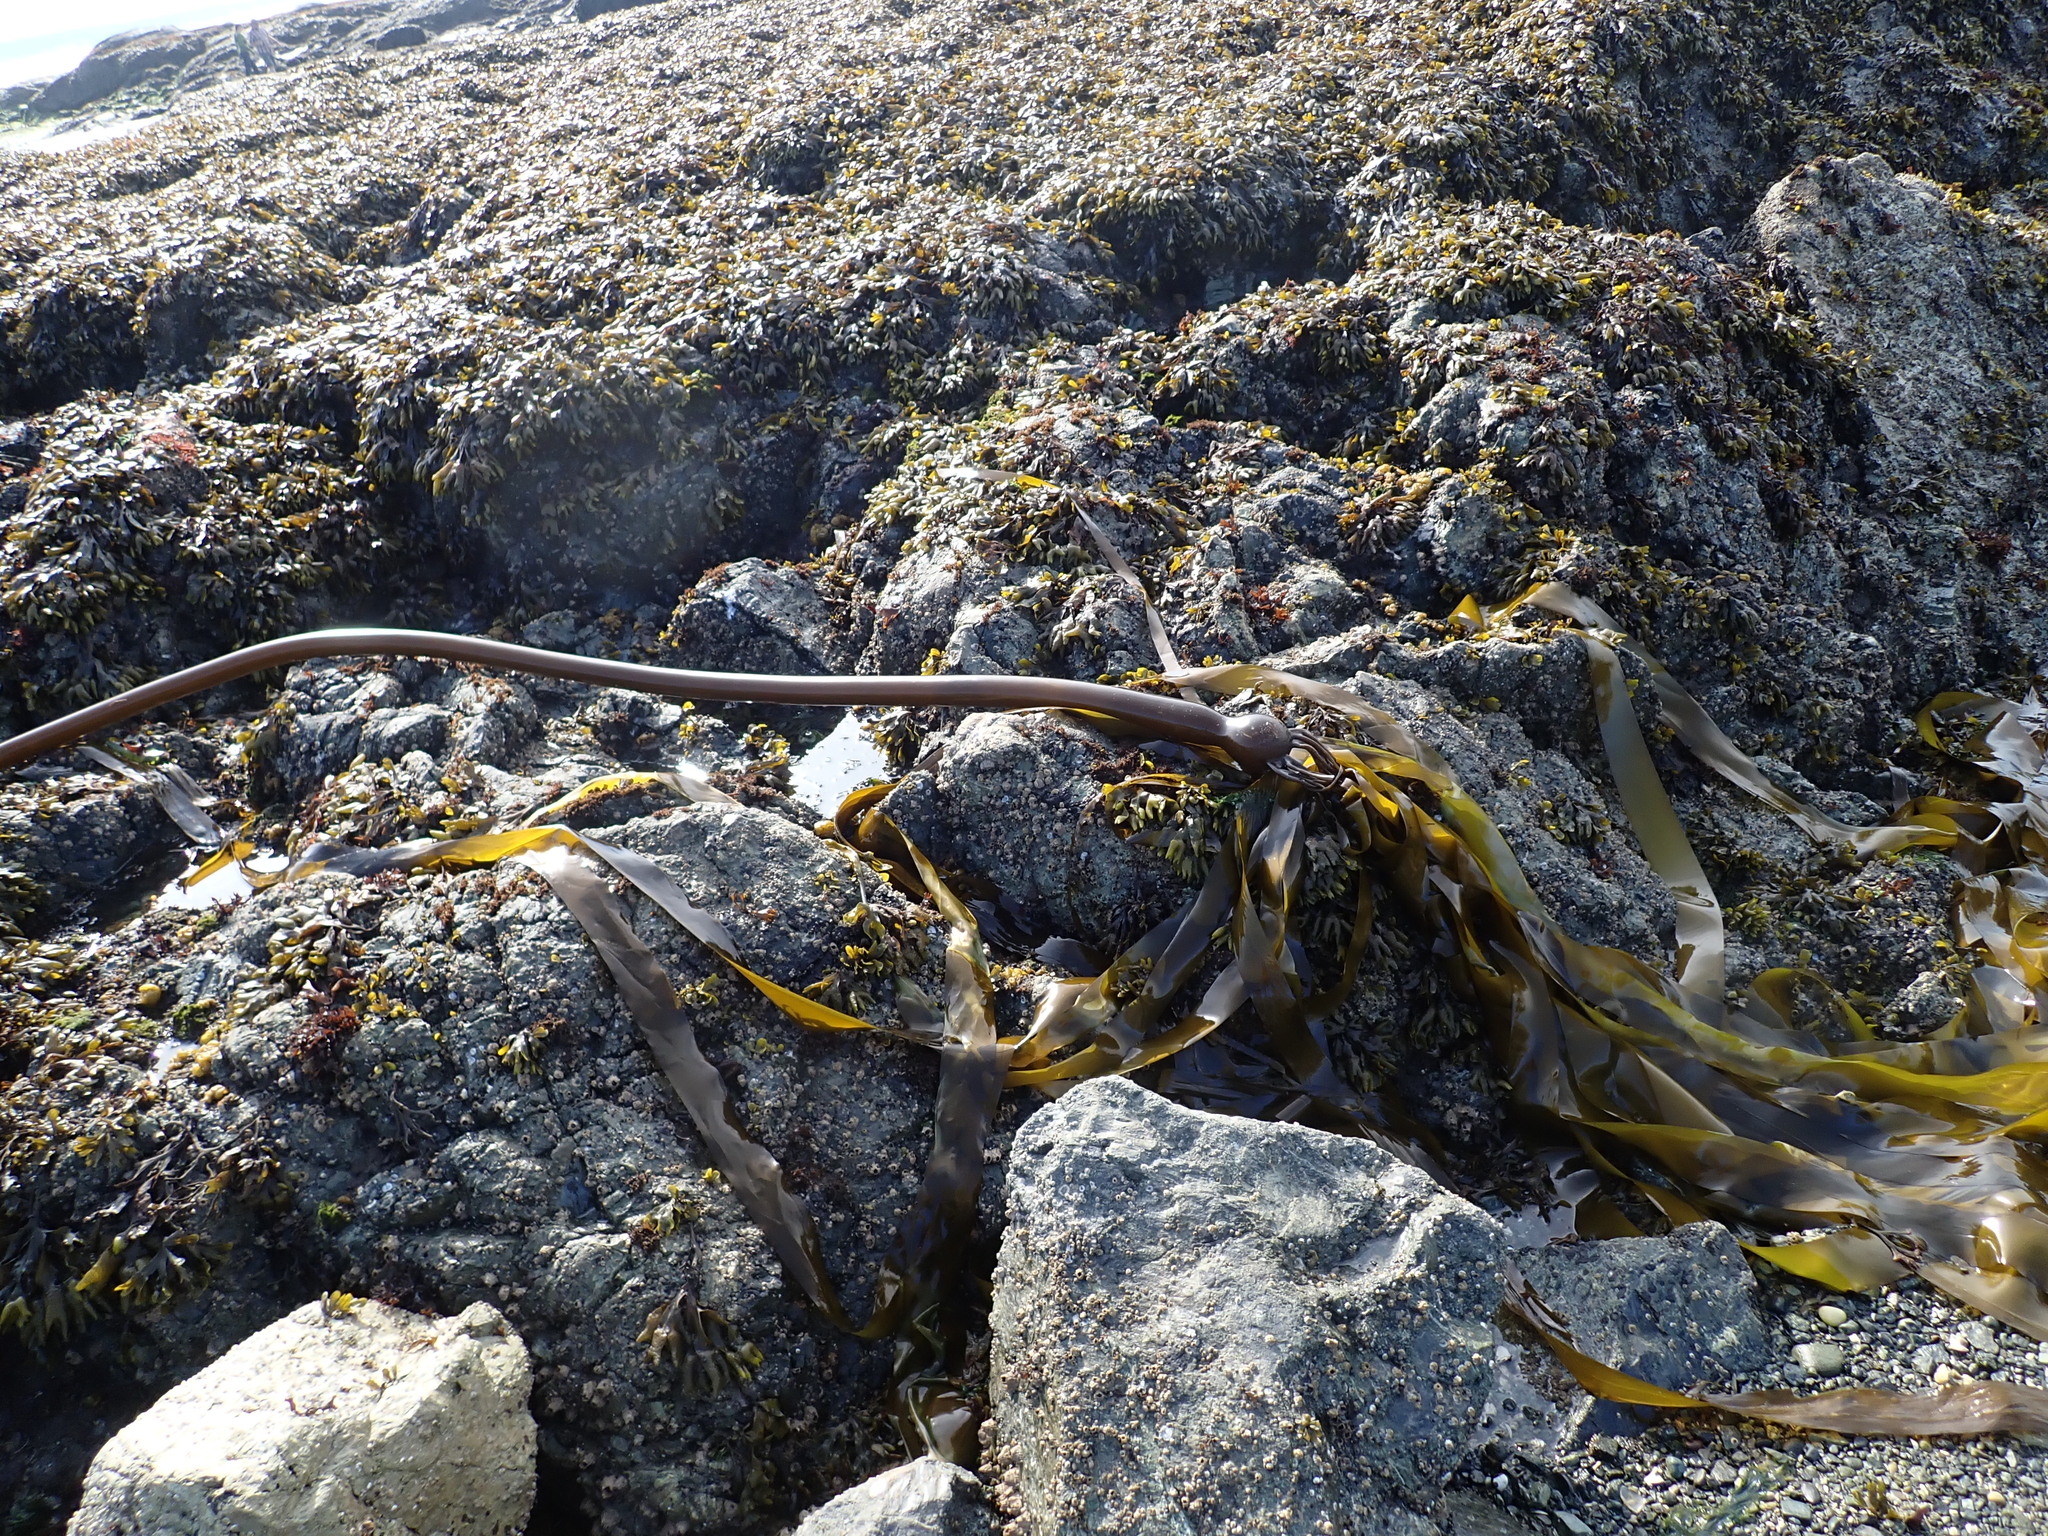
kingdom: Chromista
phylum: Ochrophyta
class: Phaeophyceae
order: Laminariales
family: Laminariaceae
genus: Nereocystis
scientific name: Nereocystis luetkeana
